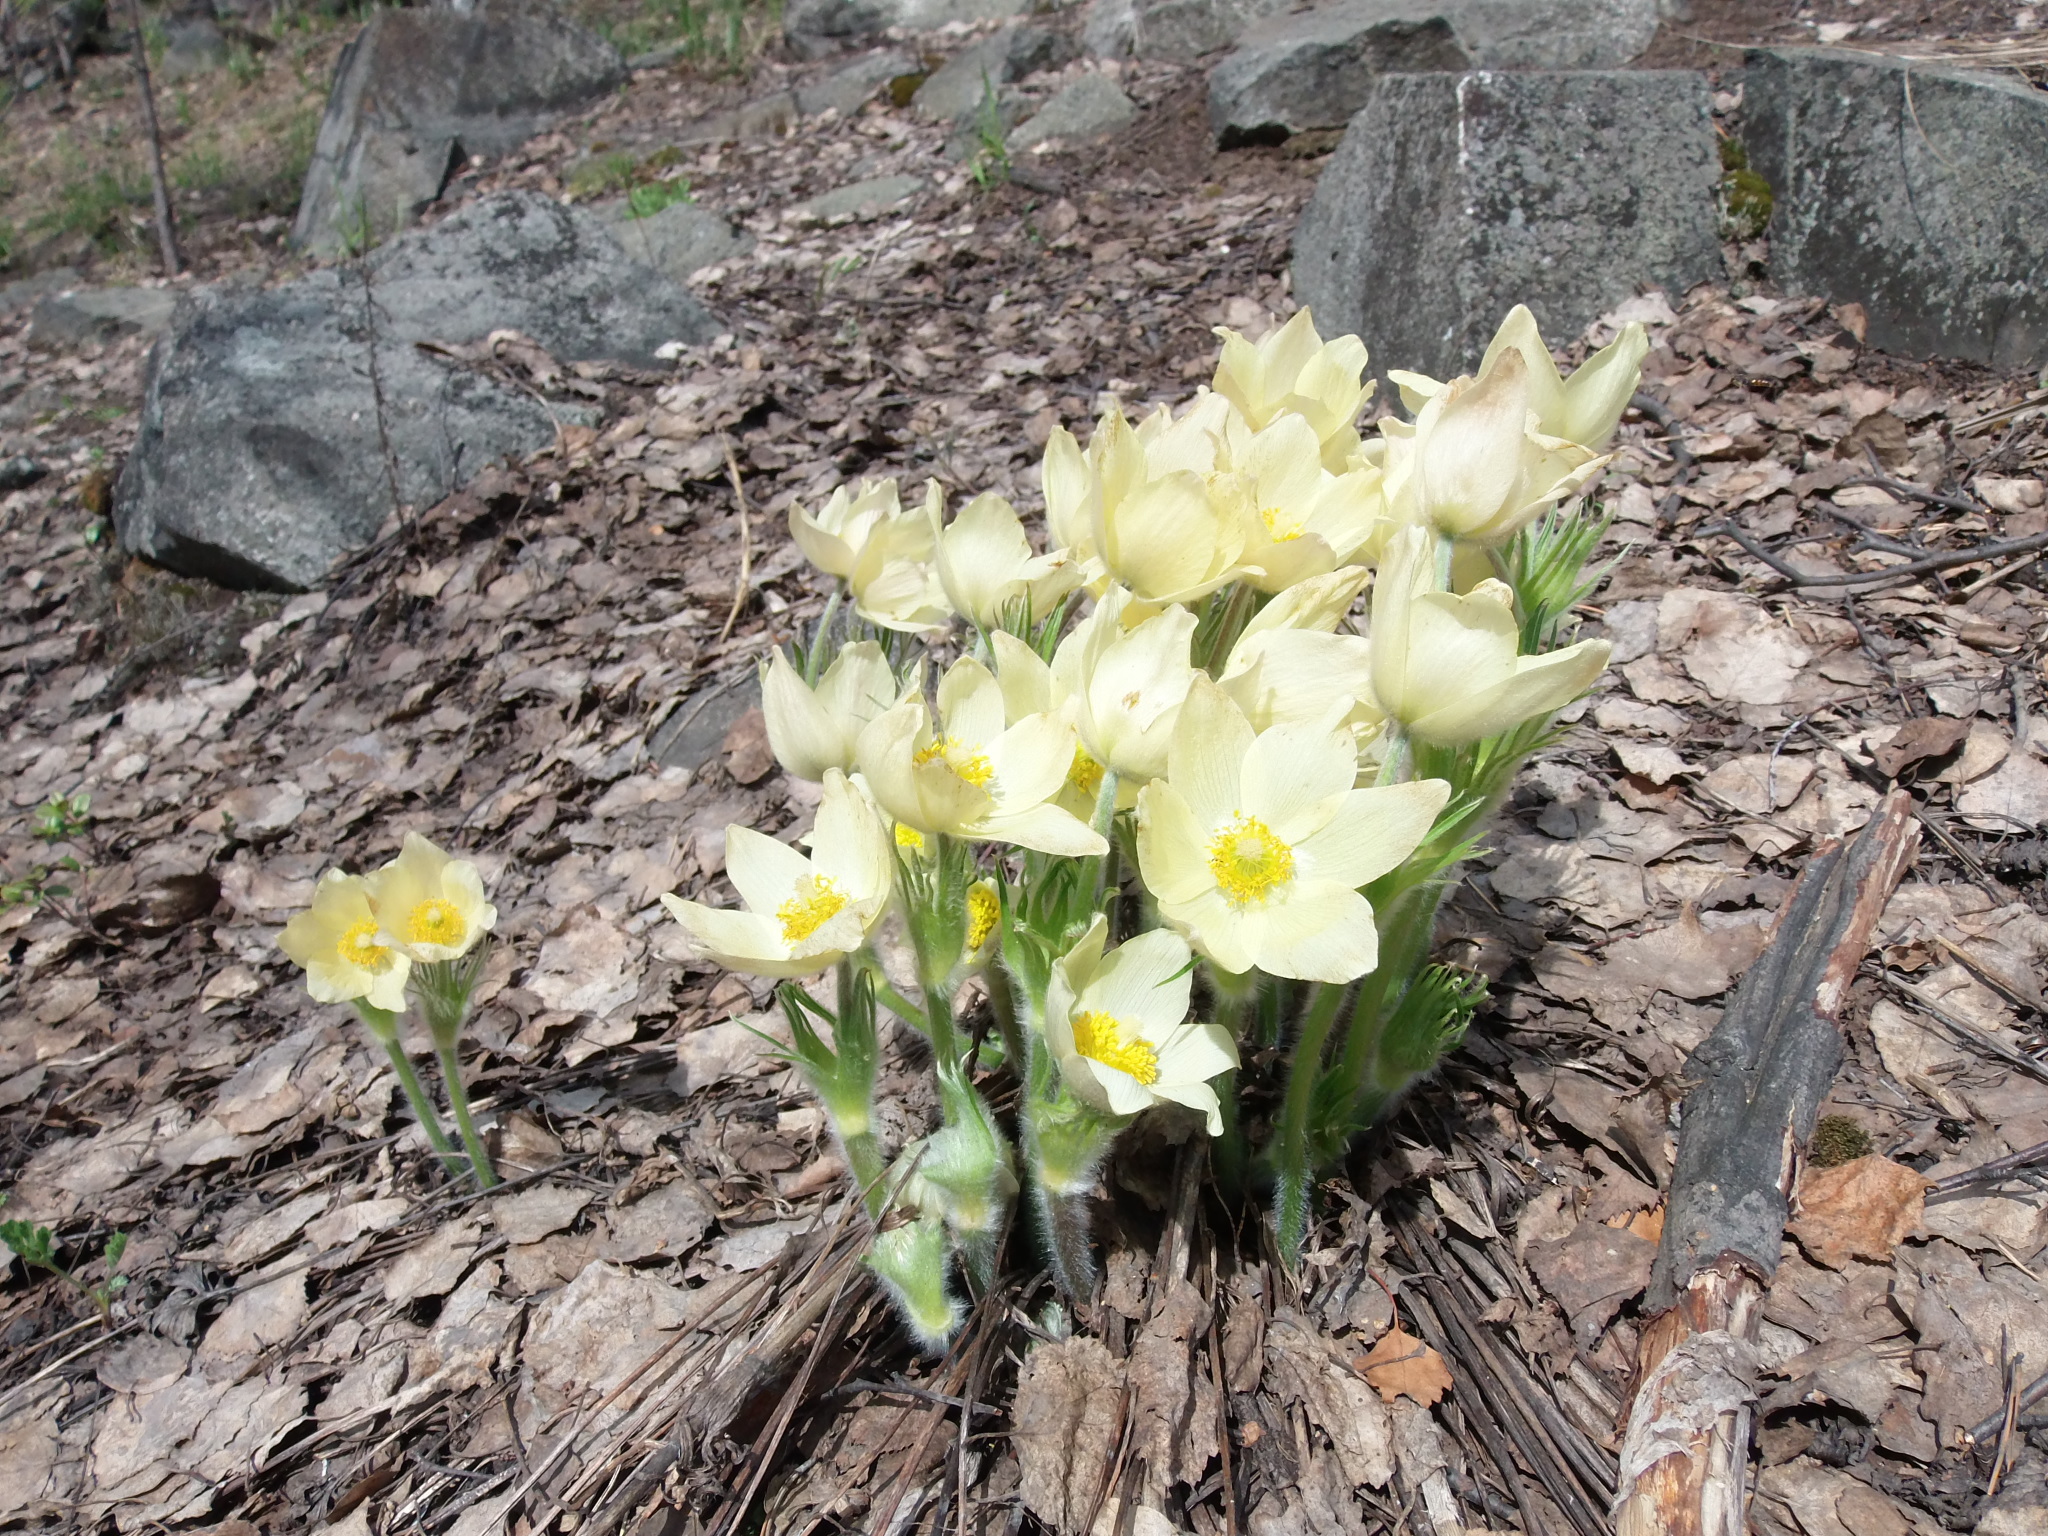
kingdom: Plantae
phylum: Tracheophyta
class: Magnoliopsida
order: Ranunculales
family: Ranunculaceae
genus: Pulsatilla
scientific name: Pulsatilla patens
